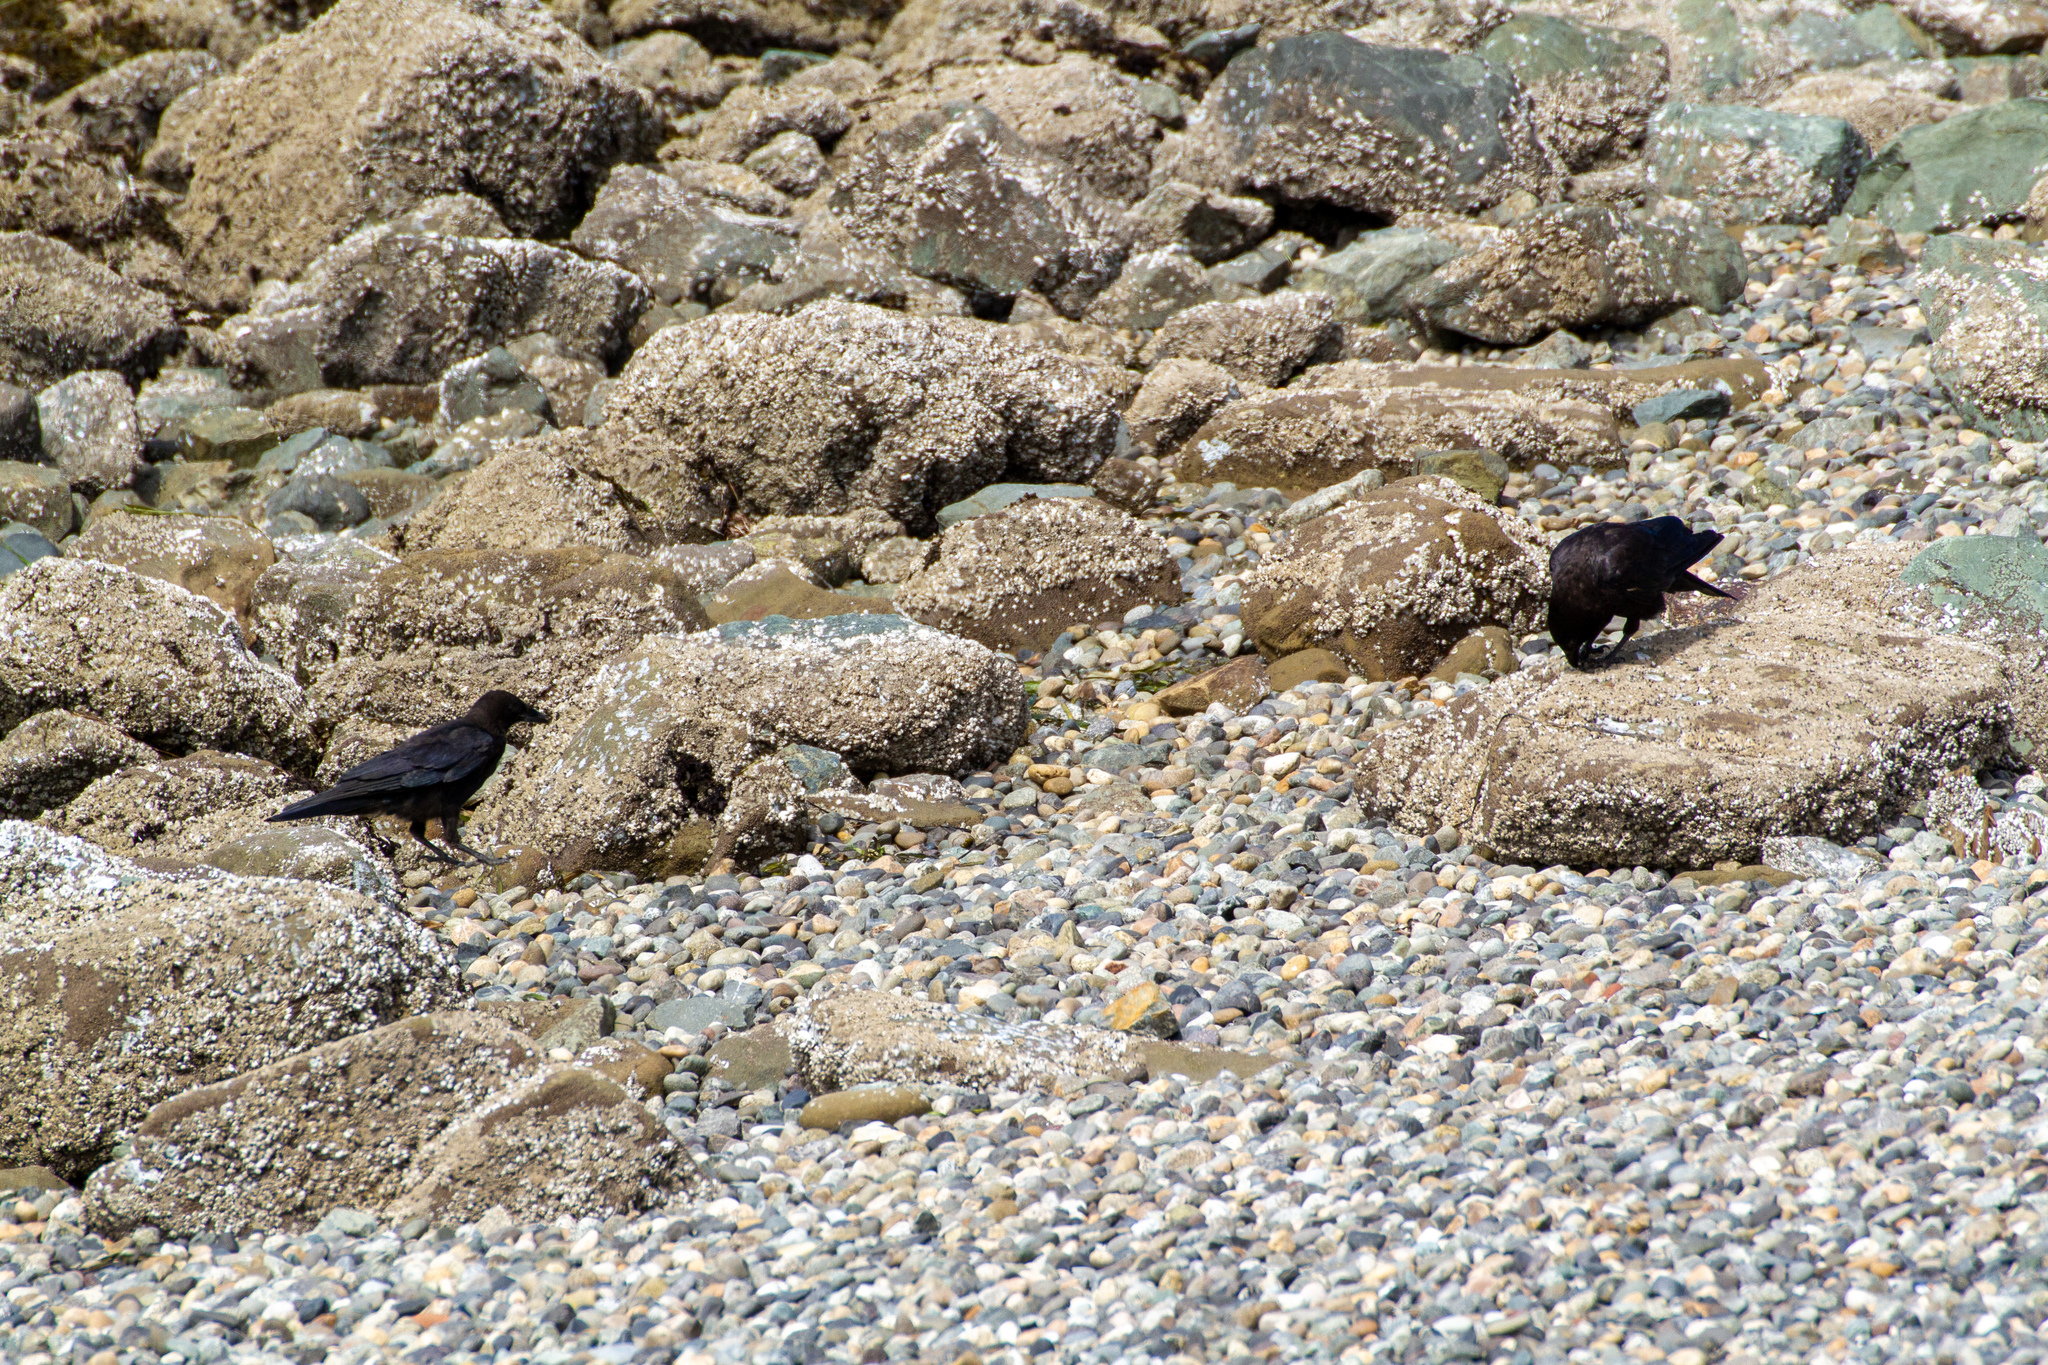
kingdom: Animalia
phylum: Chordata
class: Aves
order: Passeriformes
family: Corvidae
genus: Corvus
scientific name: Corvus brachyrhynchos
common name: American crow
